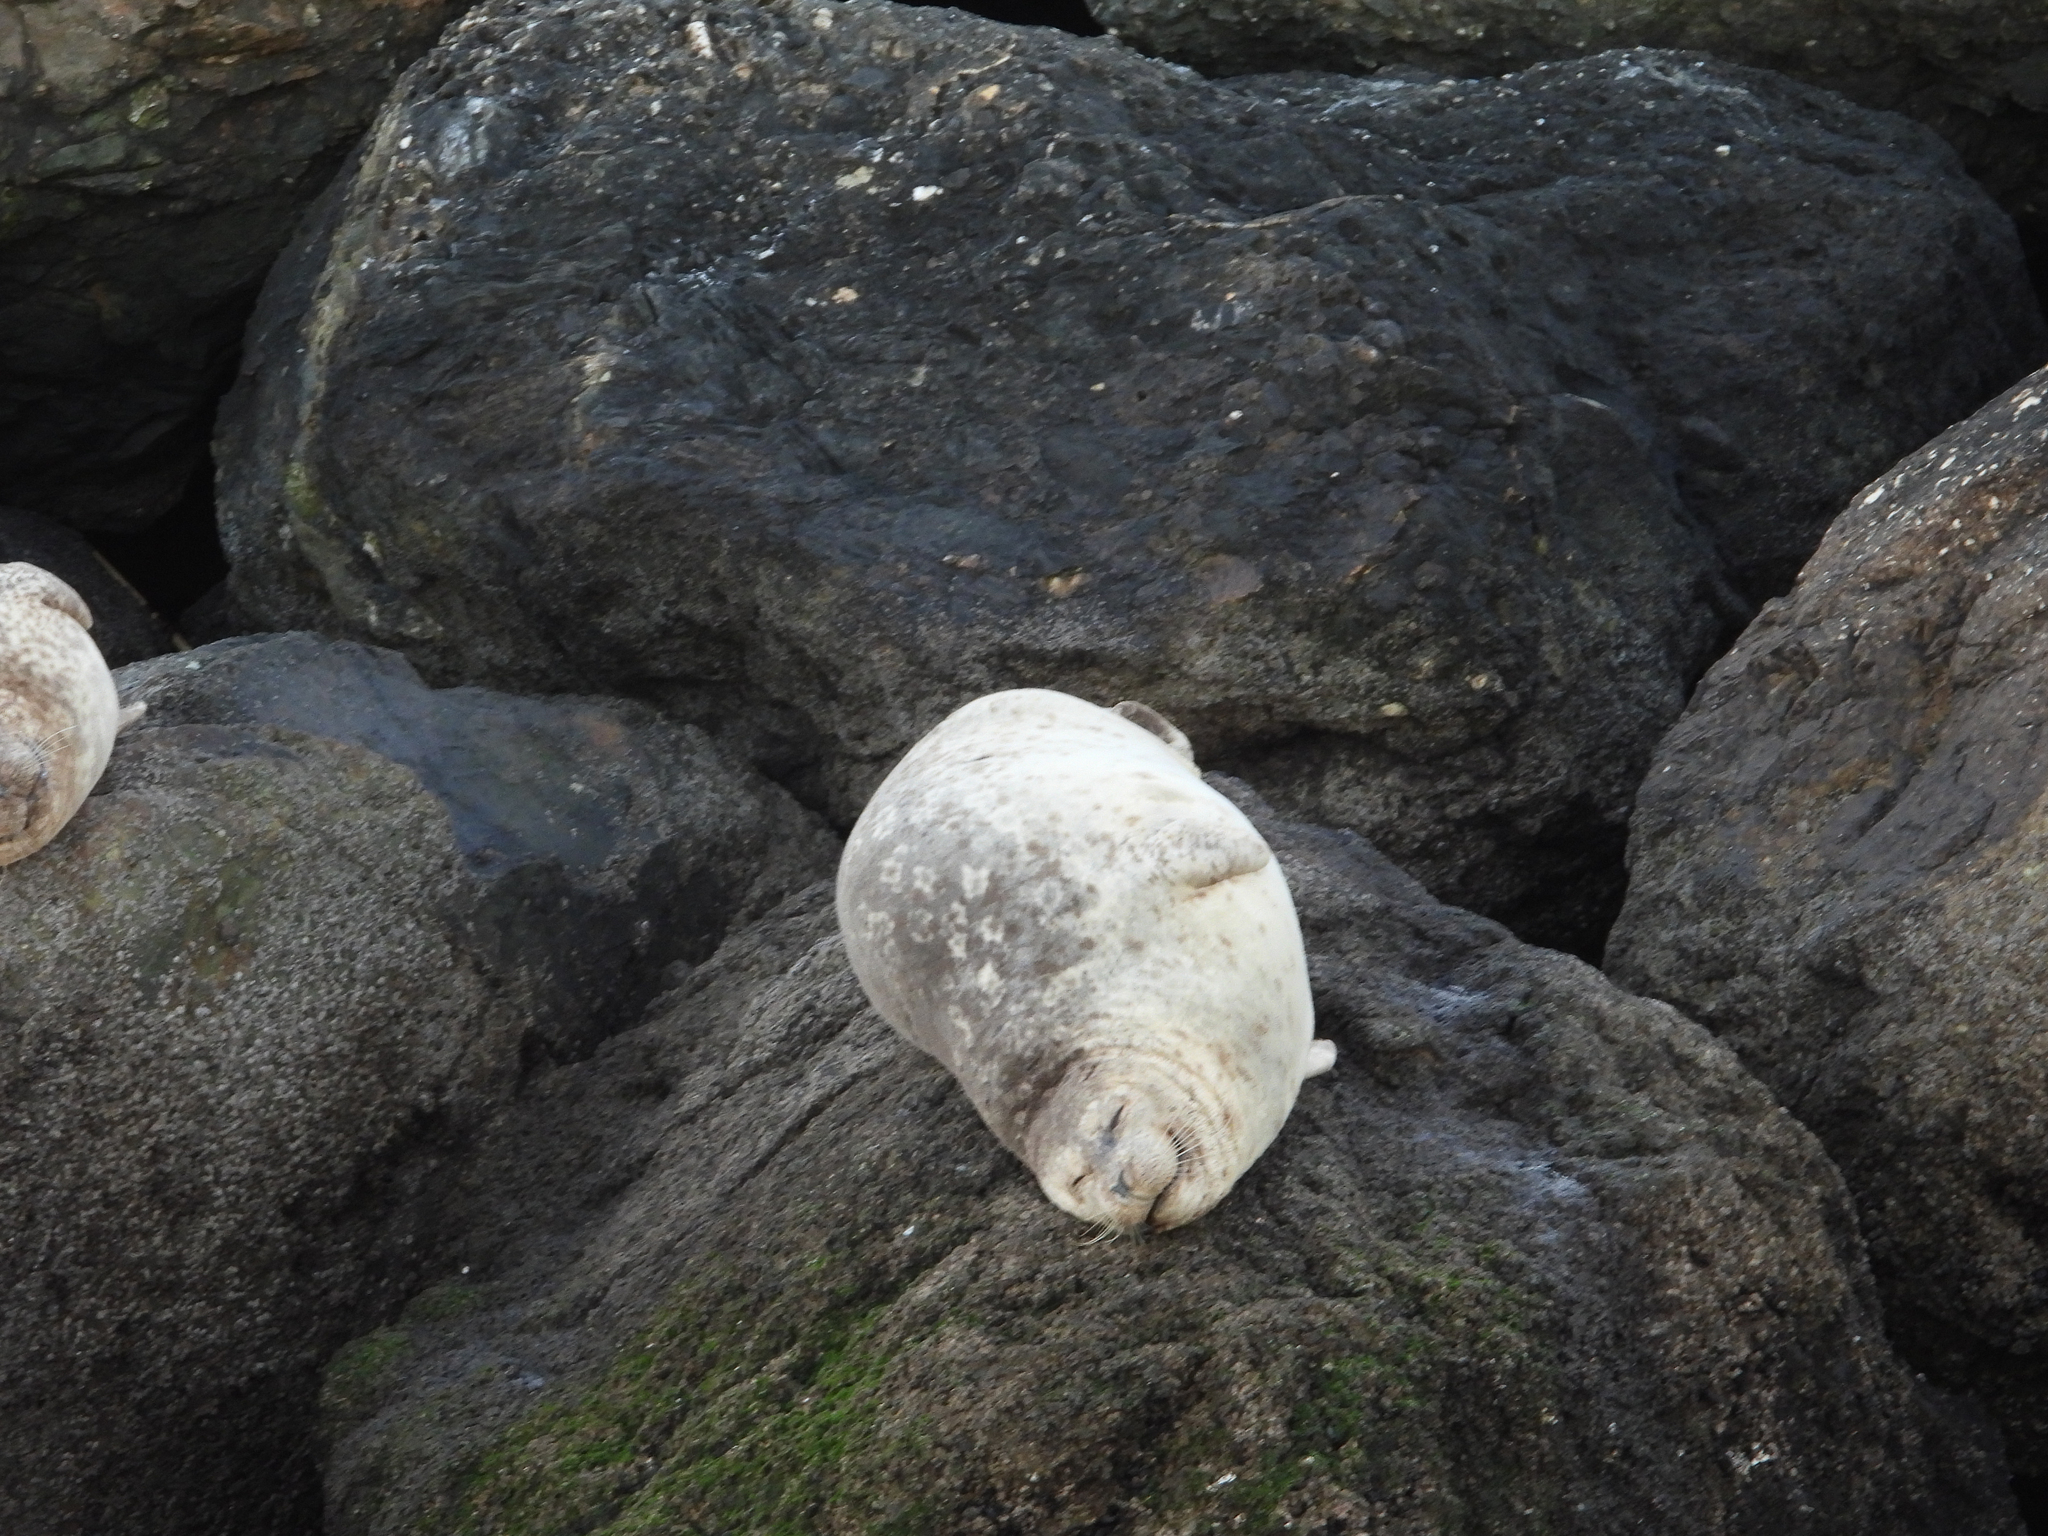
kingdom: Animalia
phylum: Chordata
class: Mammalia
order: Carnivora
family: Phocidae
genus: Phoca
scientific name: Phoca vitulina
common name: Harbor seal
